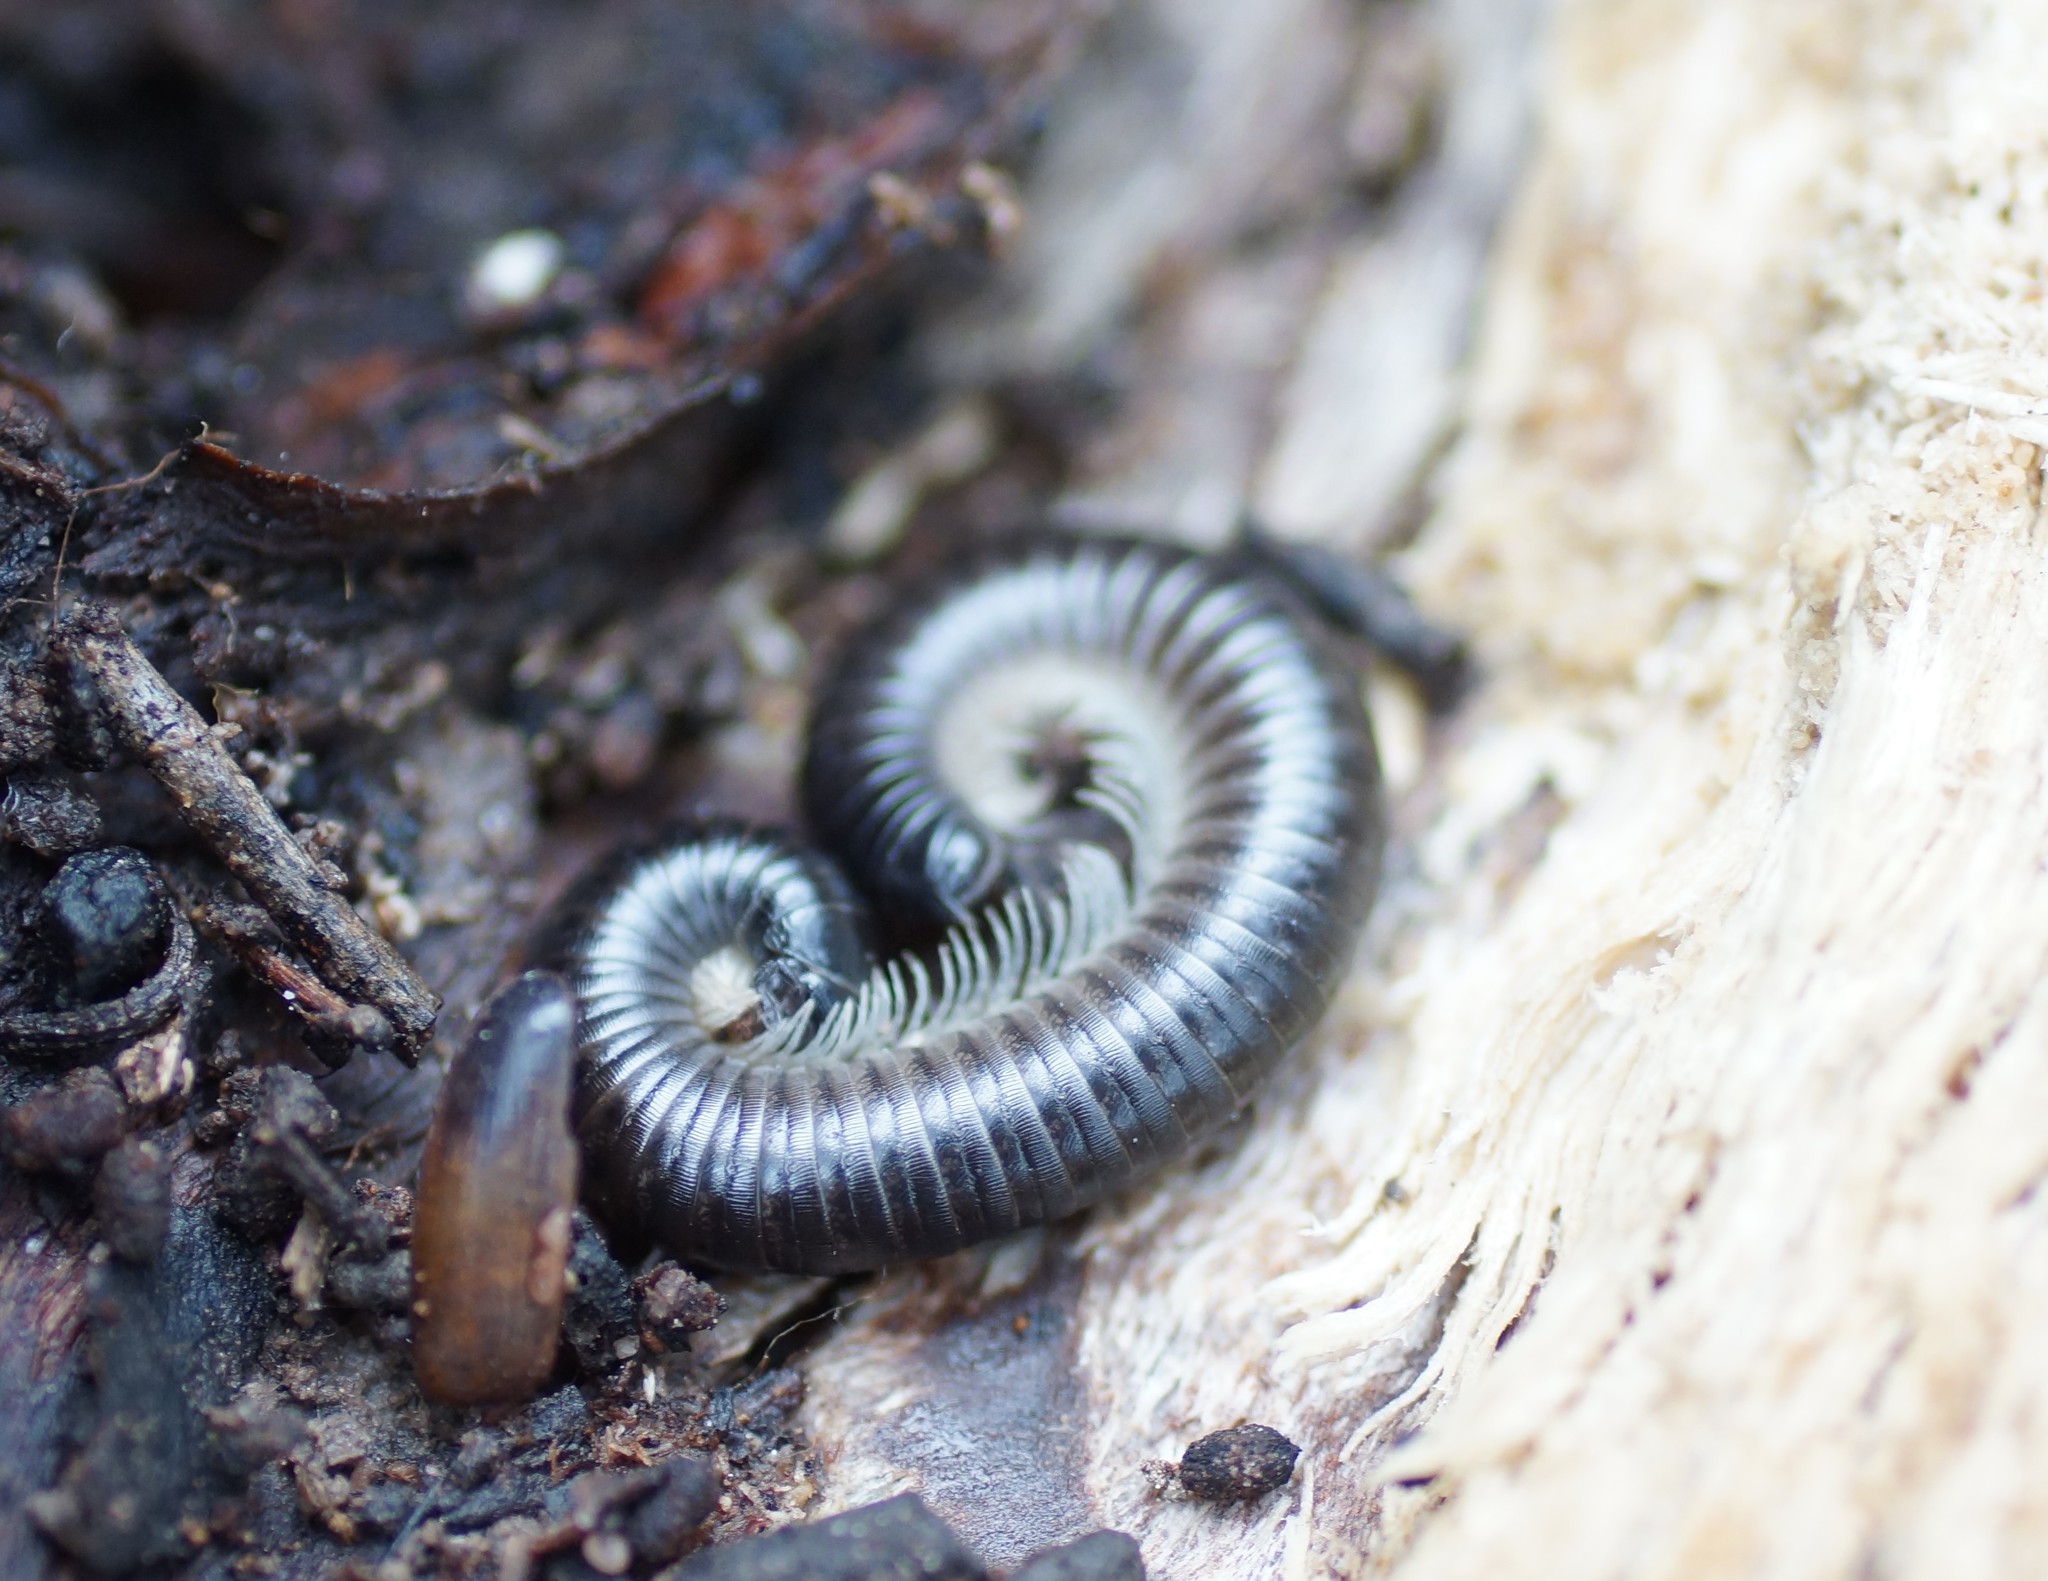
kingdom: Animalia
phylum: Arthropoda
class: Diplopoda
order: Julida
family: Julidae
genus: Ommatoiulus
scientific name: Ommatoiulus moreleti
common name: Portuguese millipede
